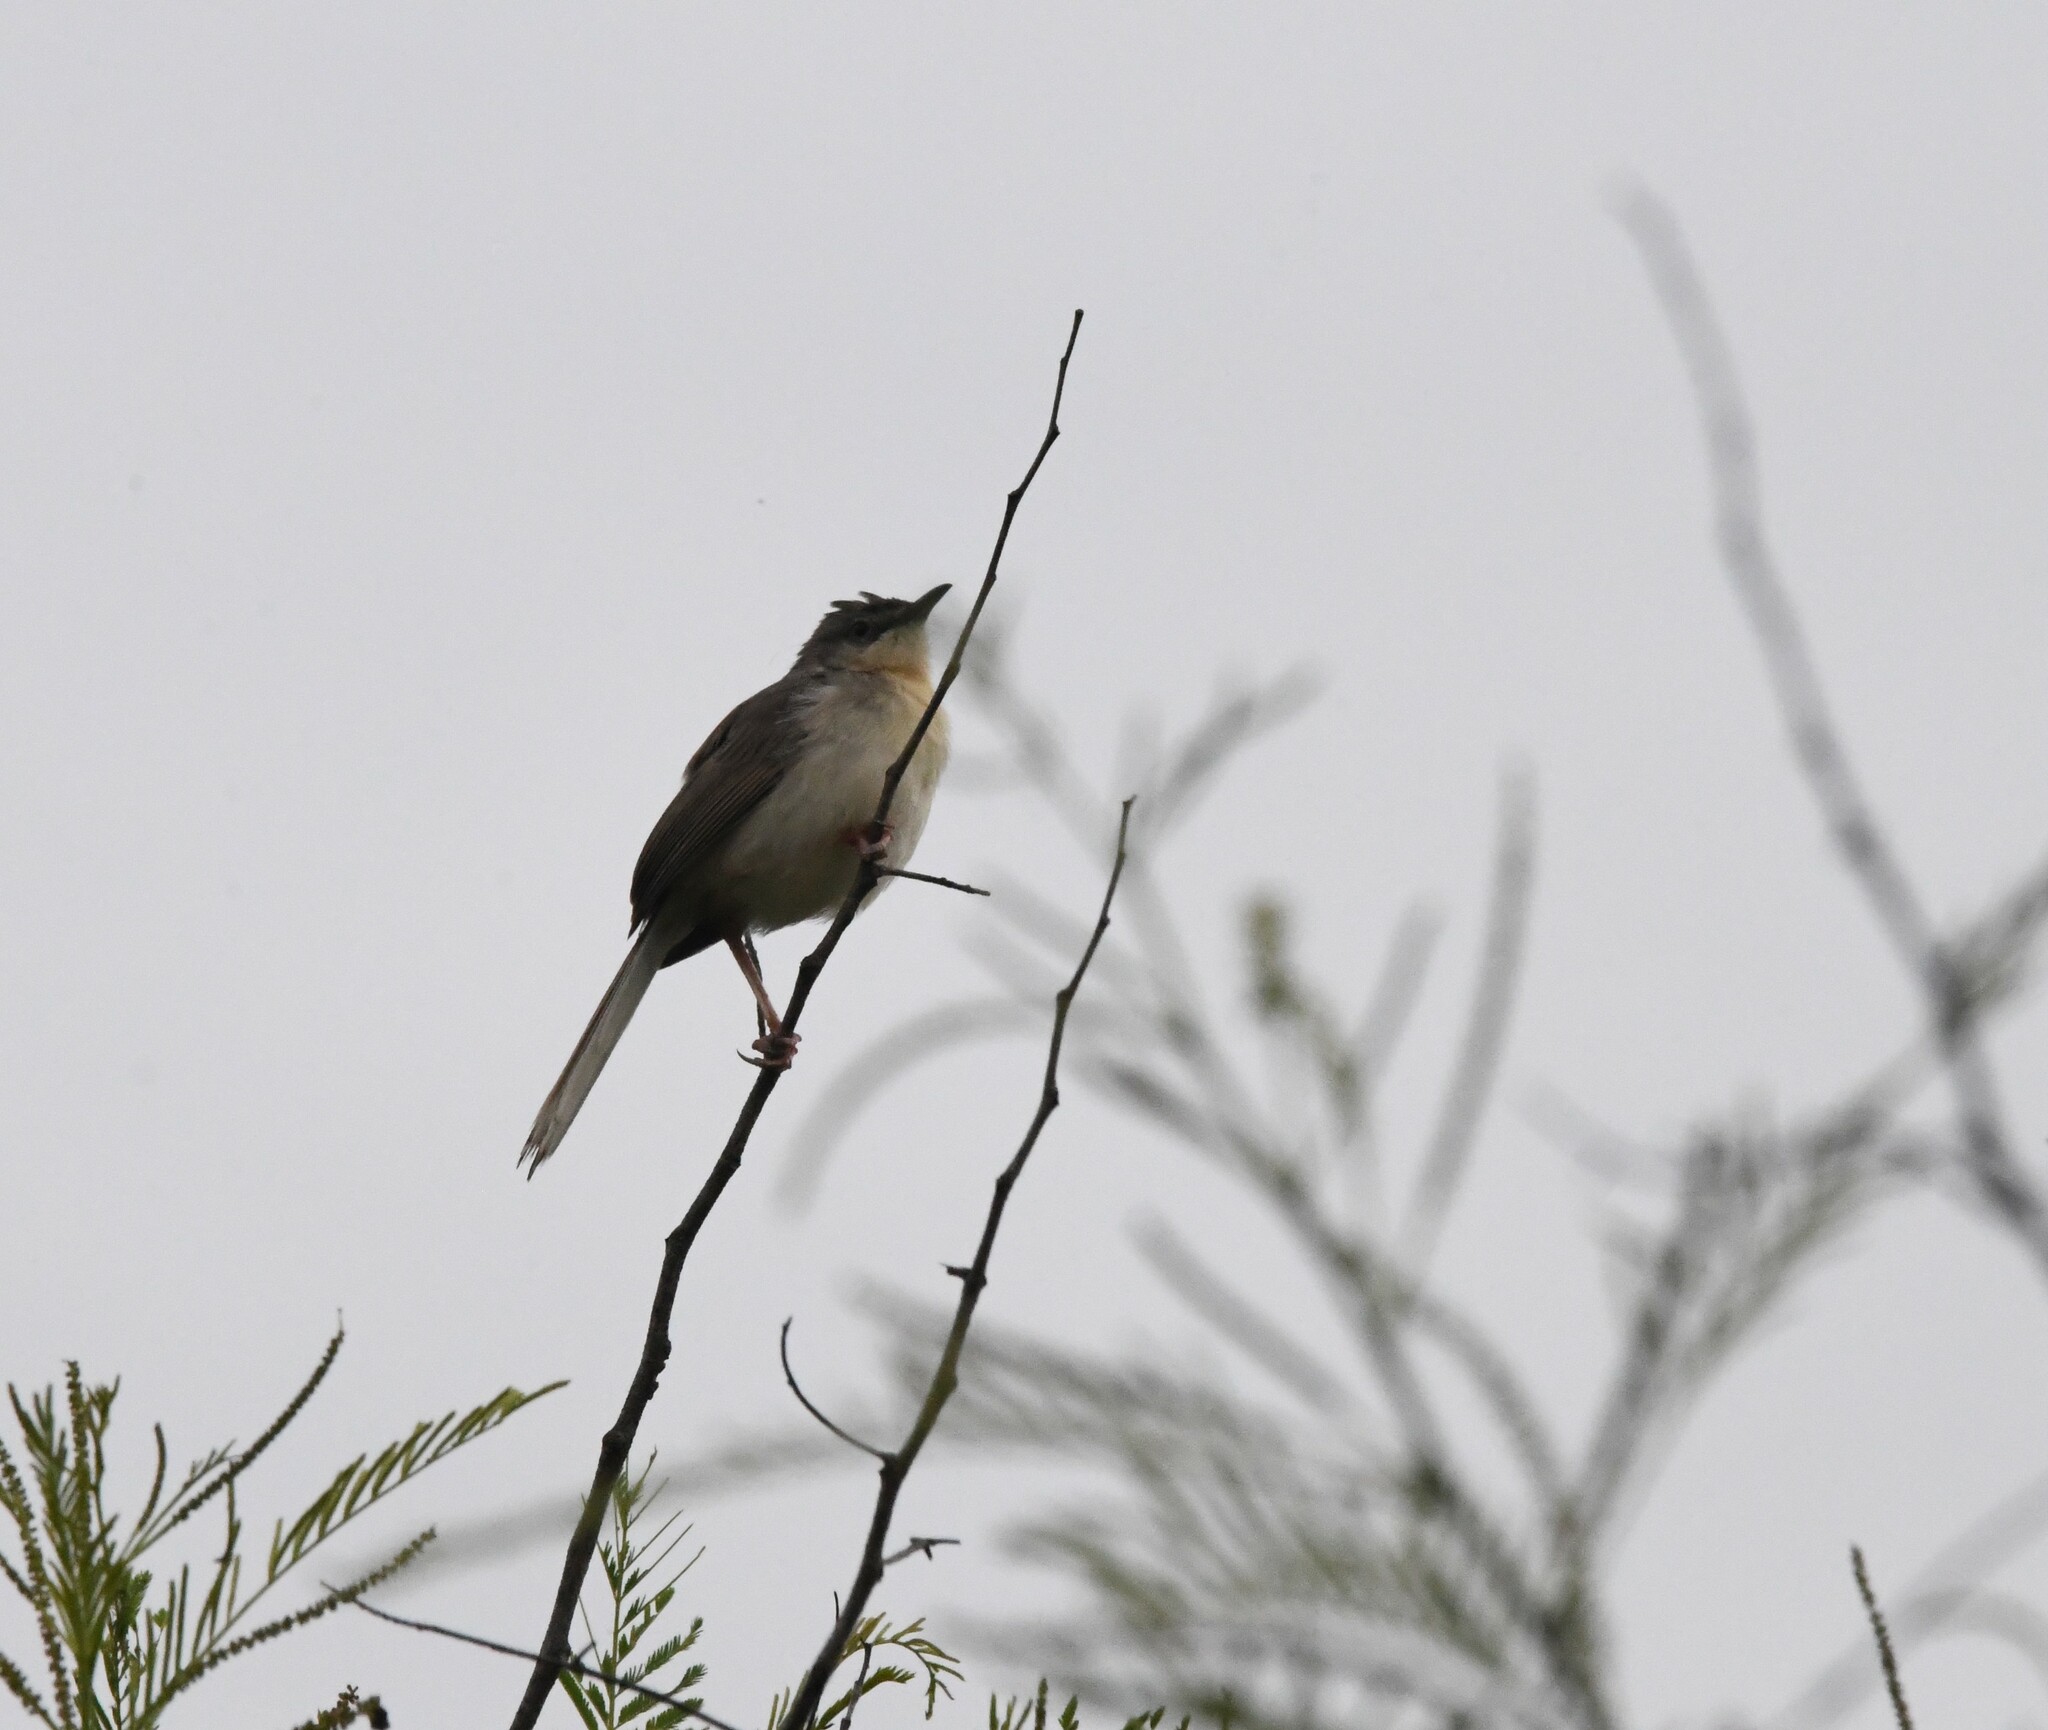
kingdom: Animalia
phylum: Chordata
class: Aves
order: Passeriformes
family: Cisticolidae
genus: Prinia
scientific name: Prinia socialis
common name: Ashy prinia
